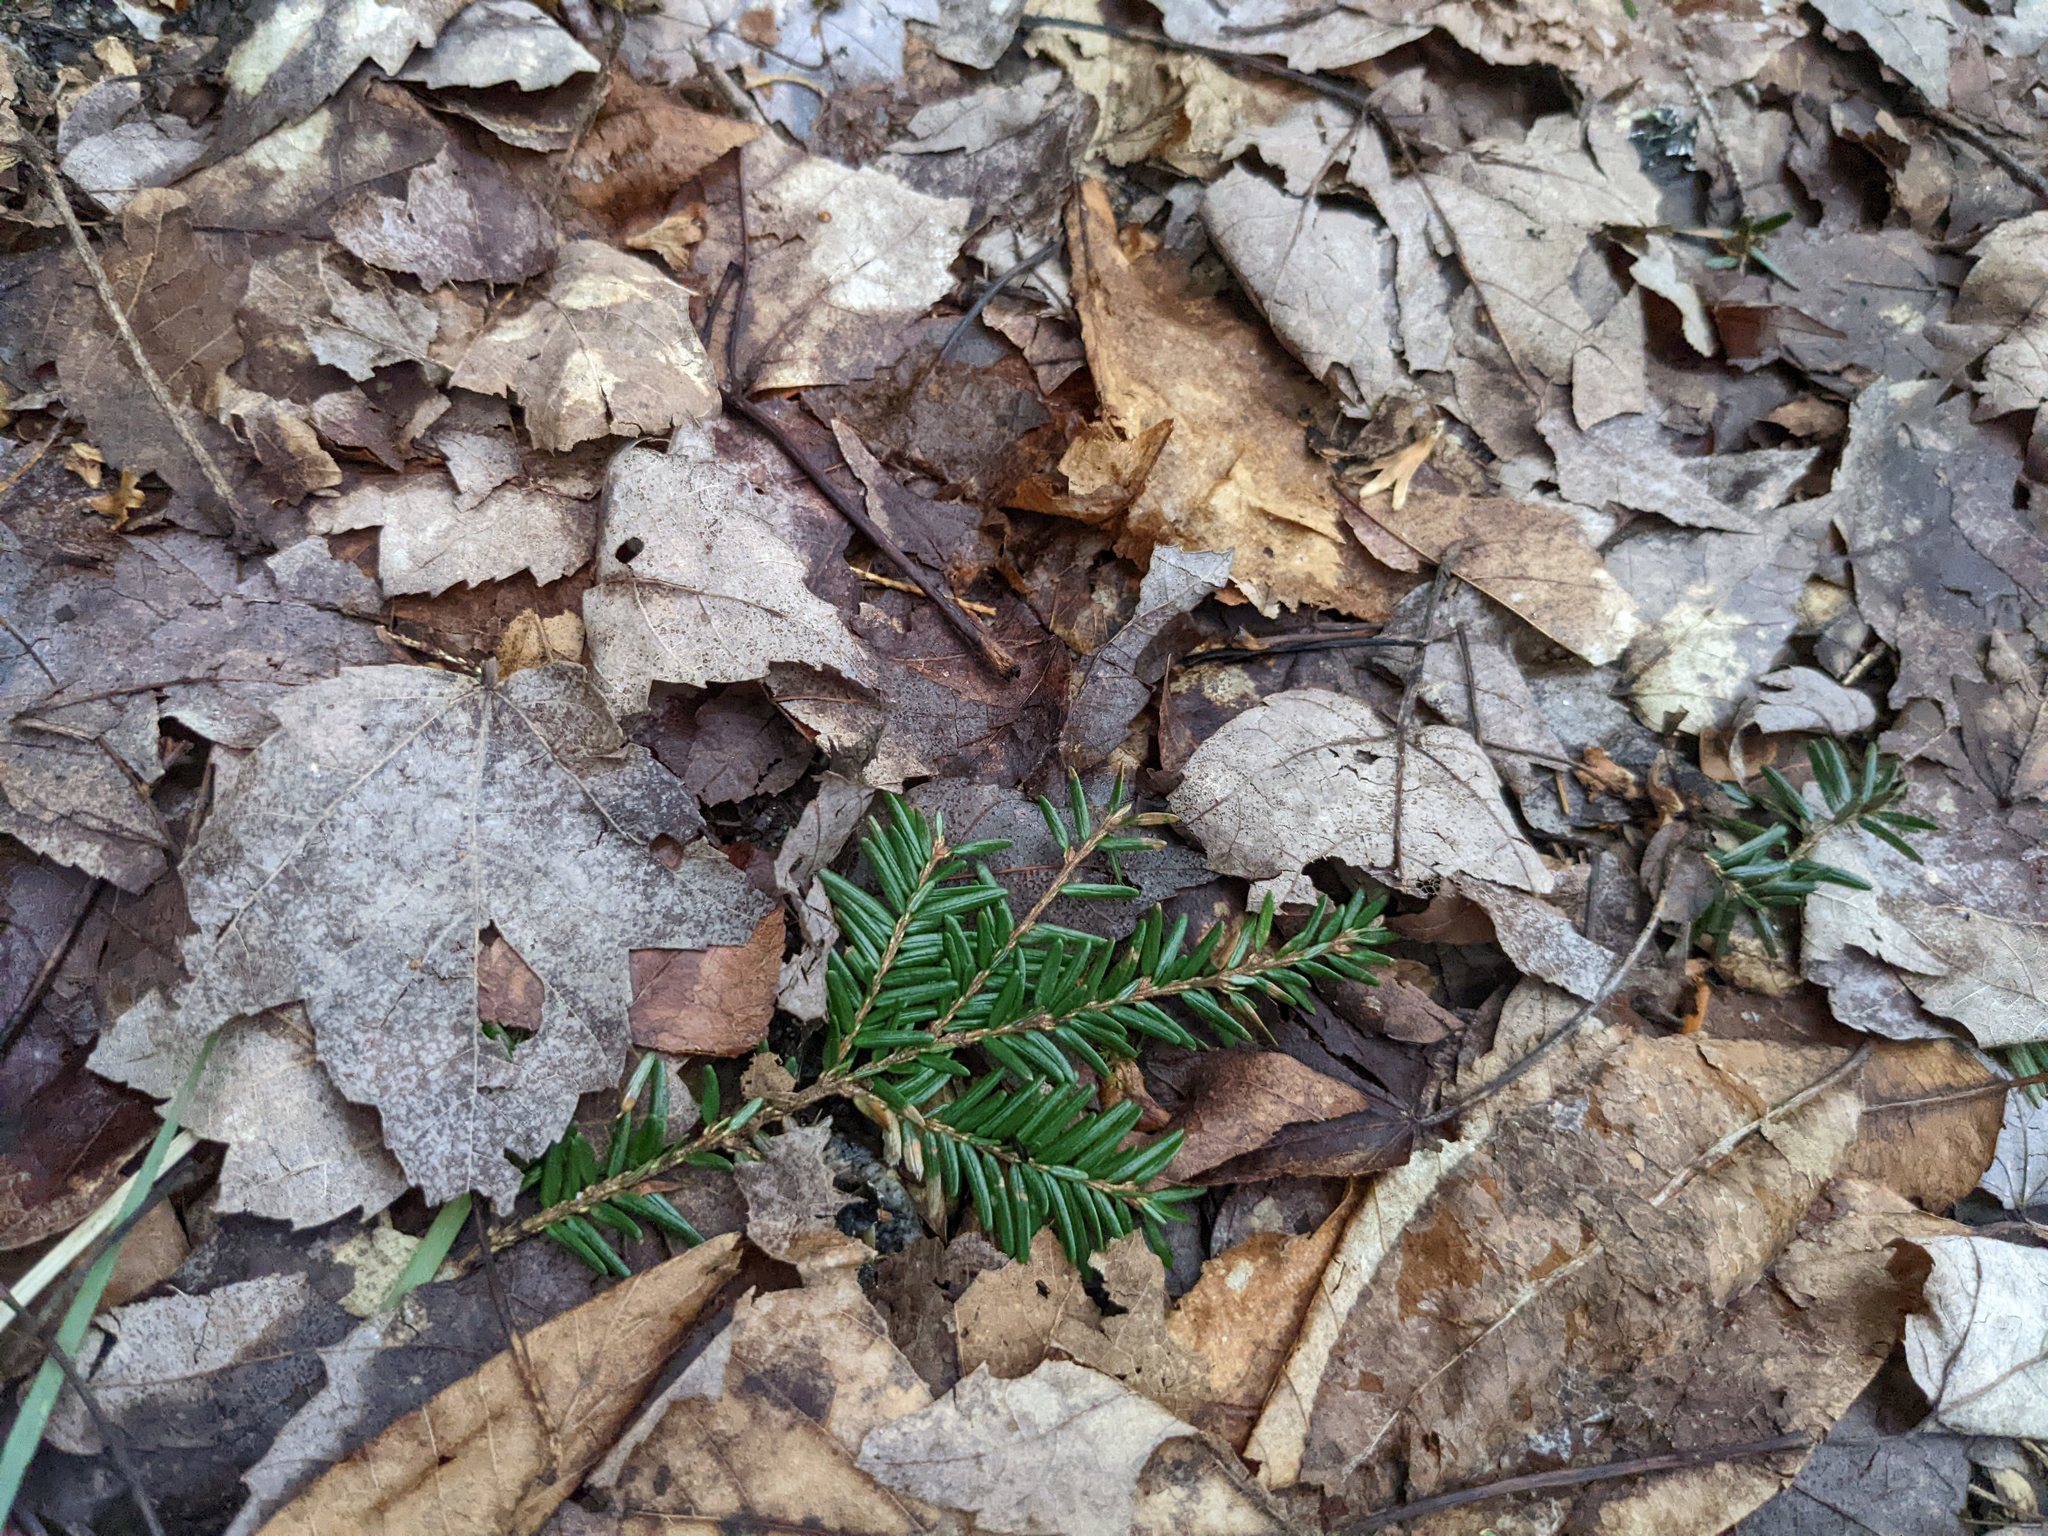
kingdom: Plantae
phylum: Tracheophyta
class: Pinopsida
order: Pinales
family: Pinaceae
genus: Tsuga
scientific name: Tsuga canadensis
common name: Eastern hemlock
